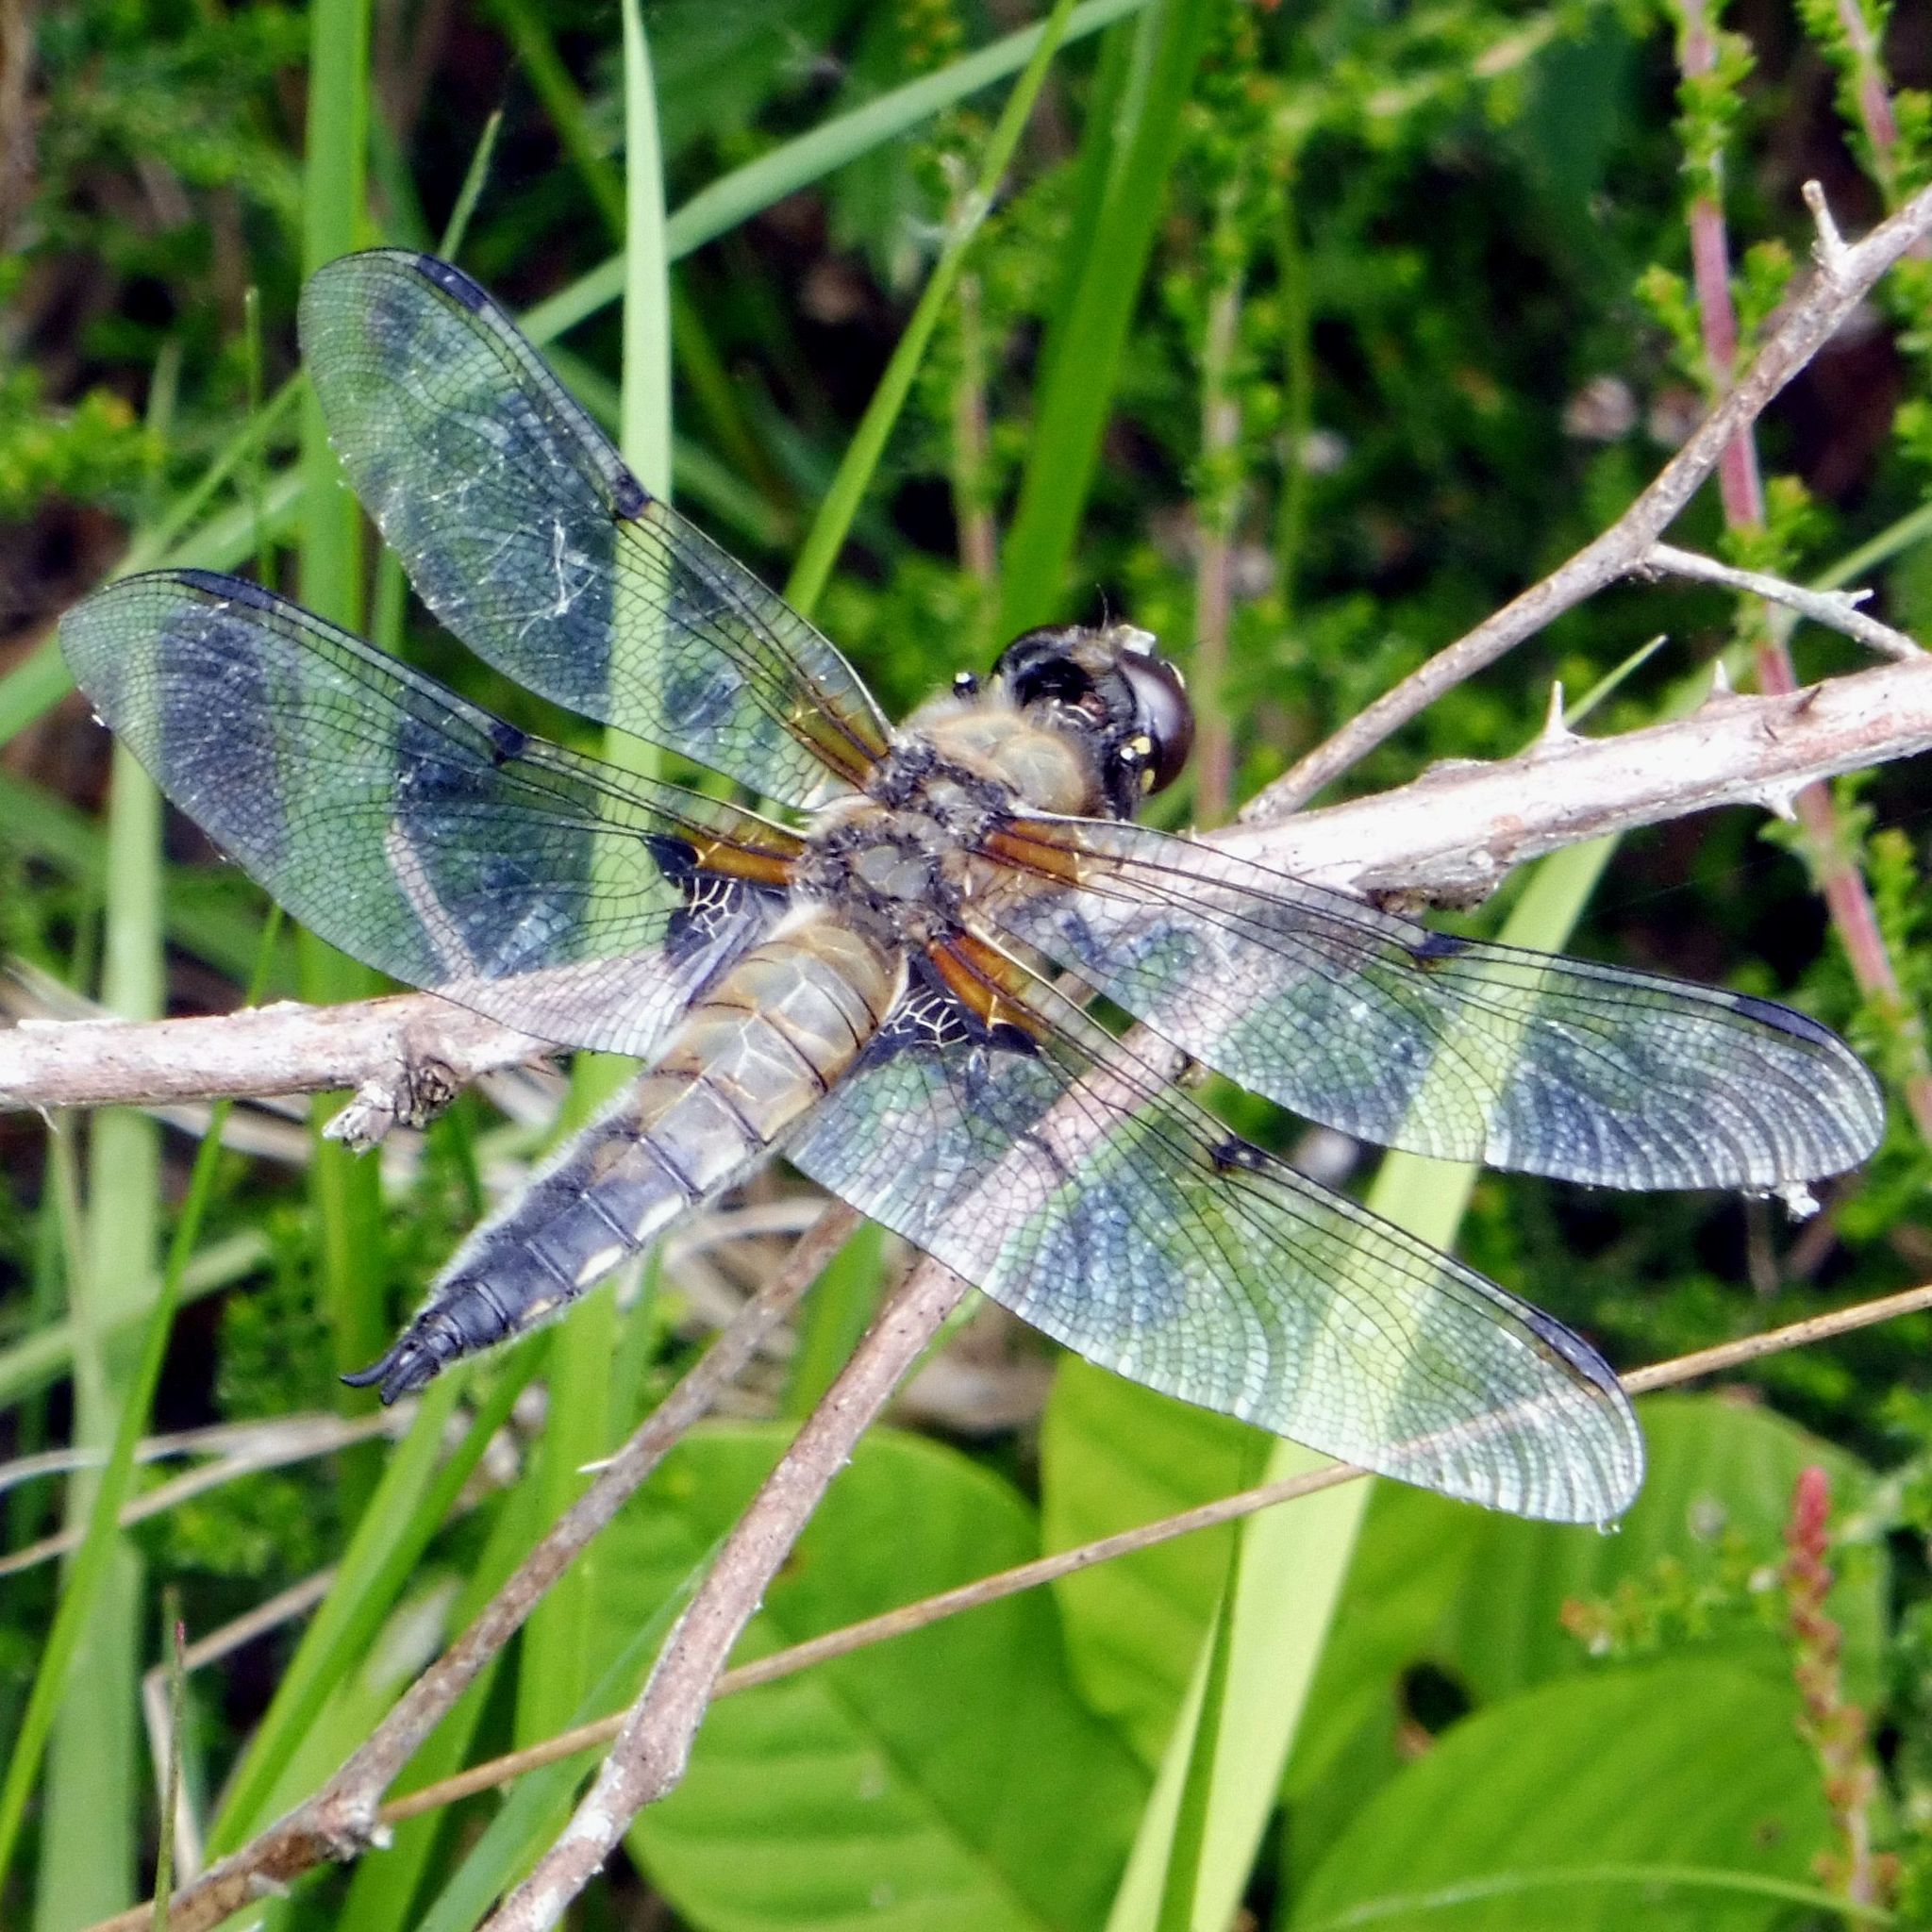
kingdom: Animalia
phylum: Arthropoda
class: Insecta
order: Odonata
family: Libellulidae
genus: Libellula
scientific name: Libellula quadrimaculata
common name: Four-spotted chaser
